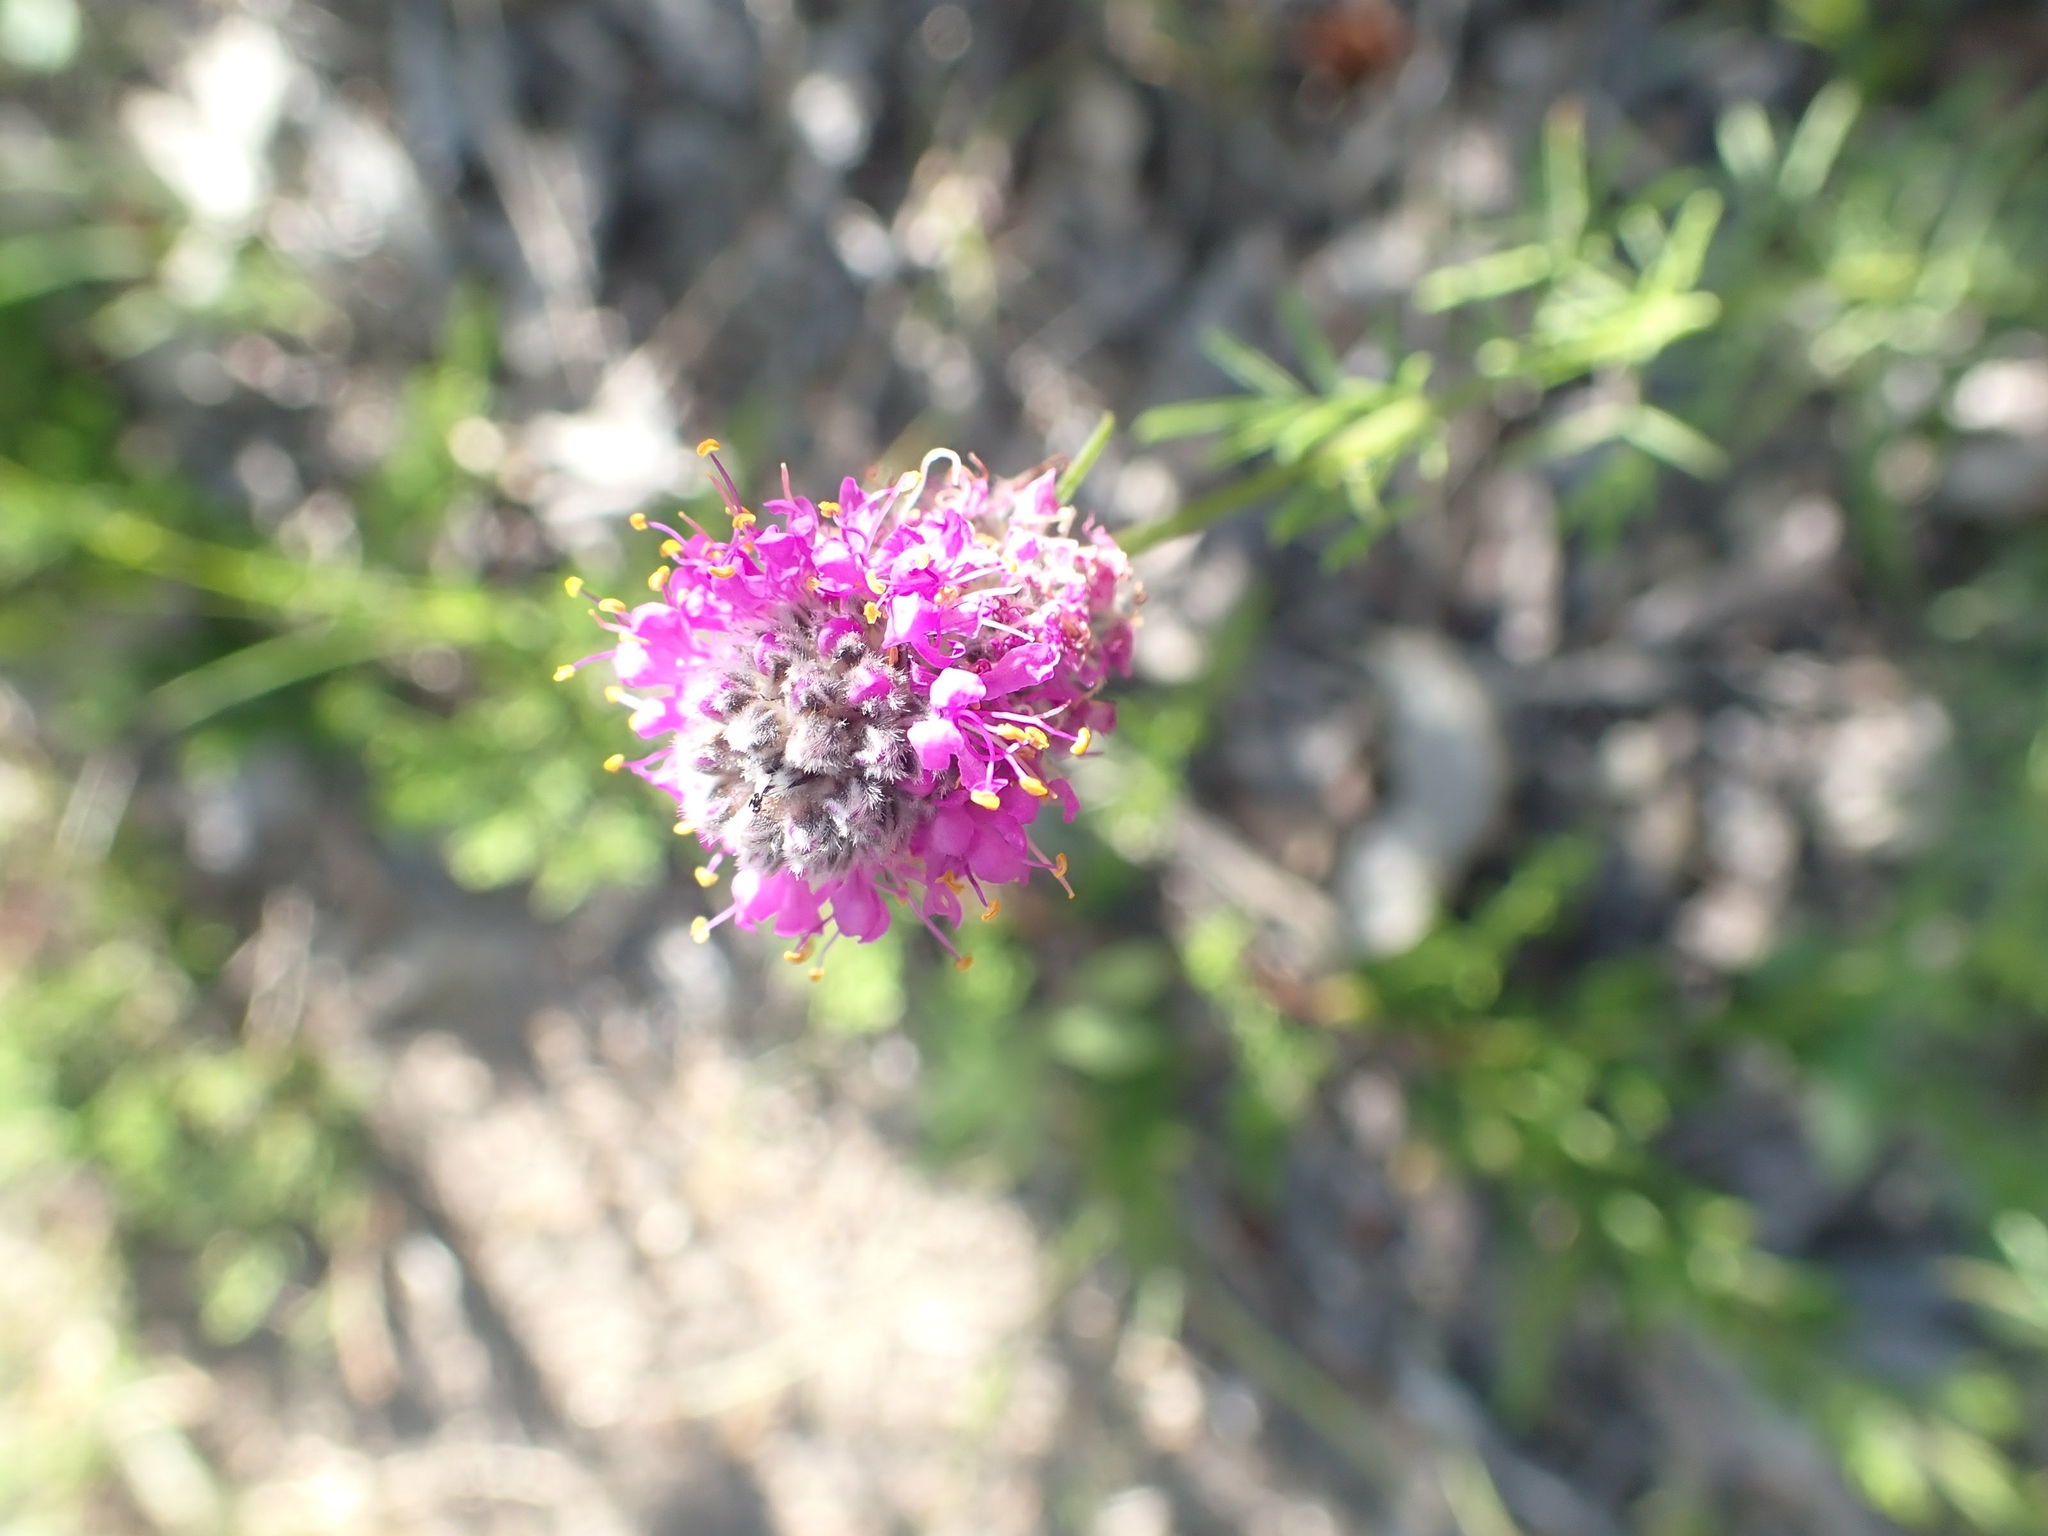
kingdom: Plantae
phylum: Tracheophyta
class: Magnoliopsida
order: Fabales
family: Fabaceae
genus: Dalea
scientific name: Dalea purpurea
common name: Purple prairie-clover
